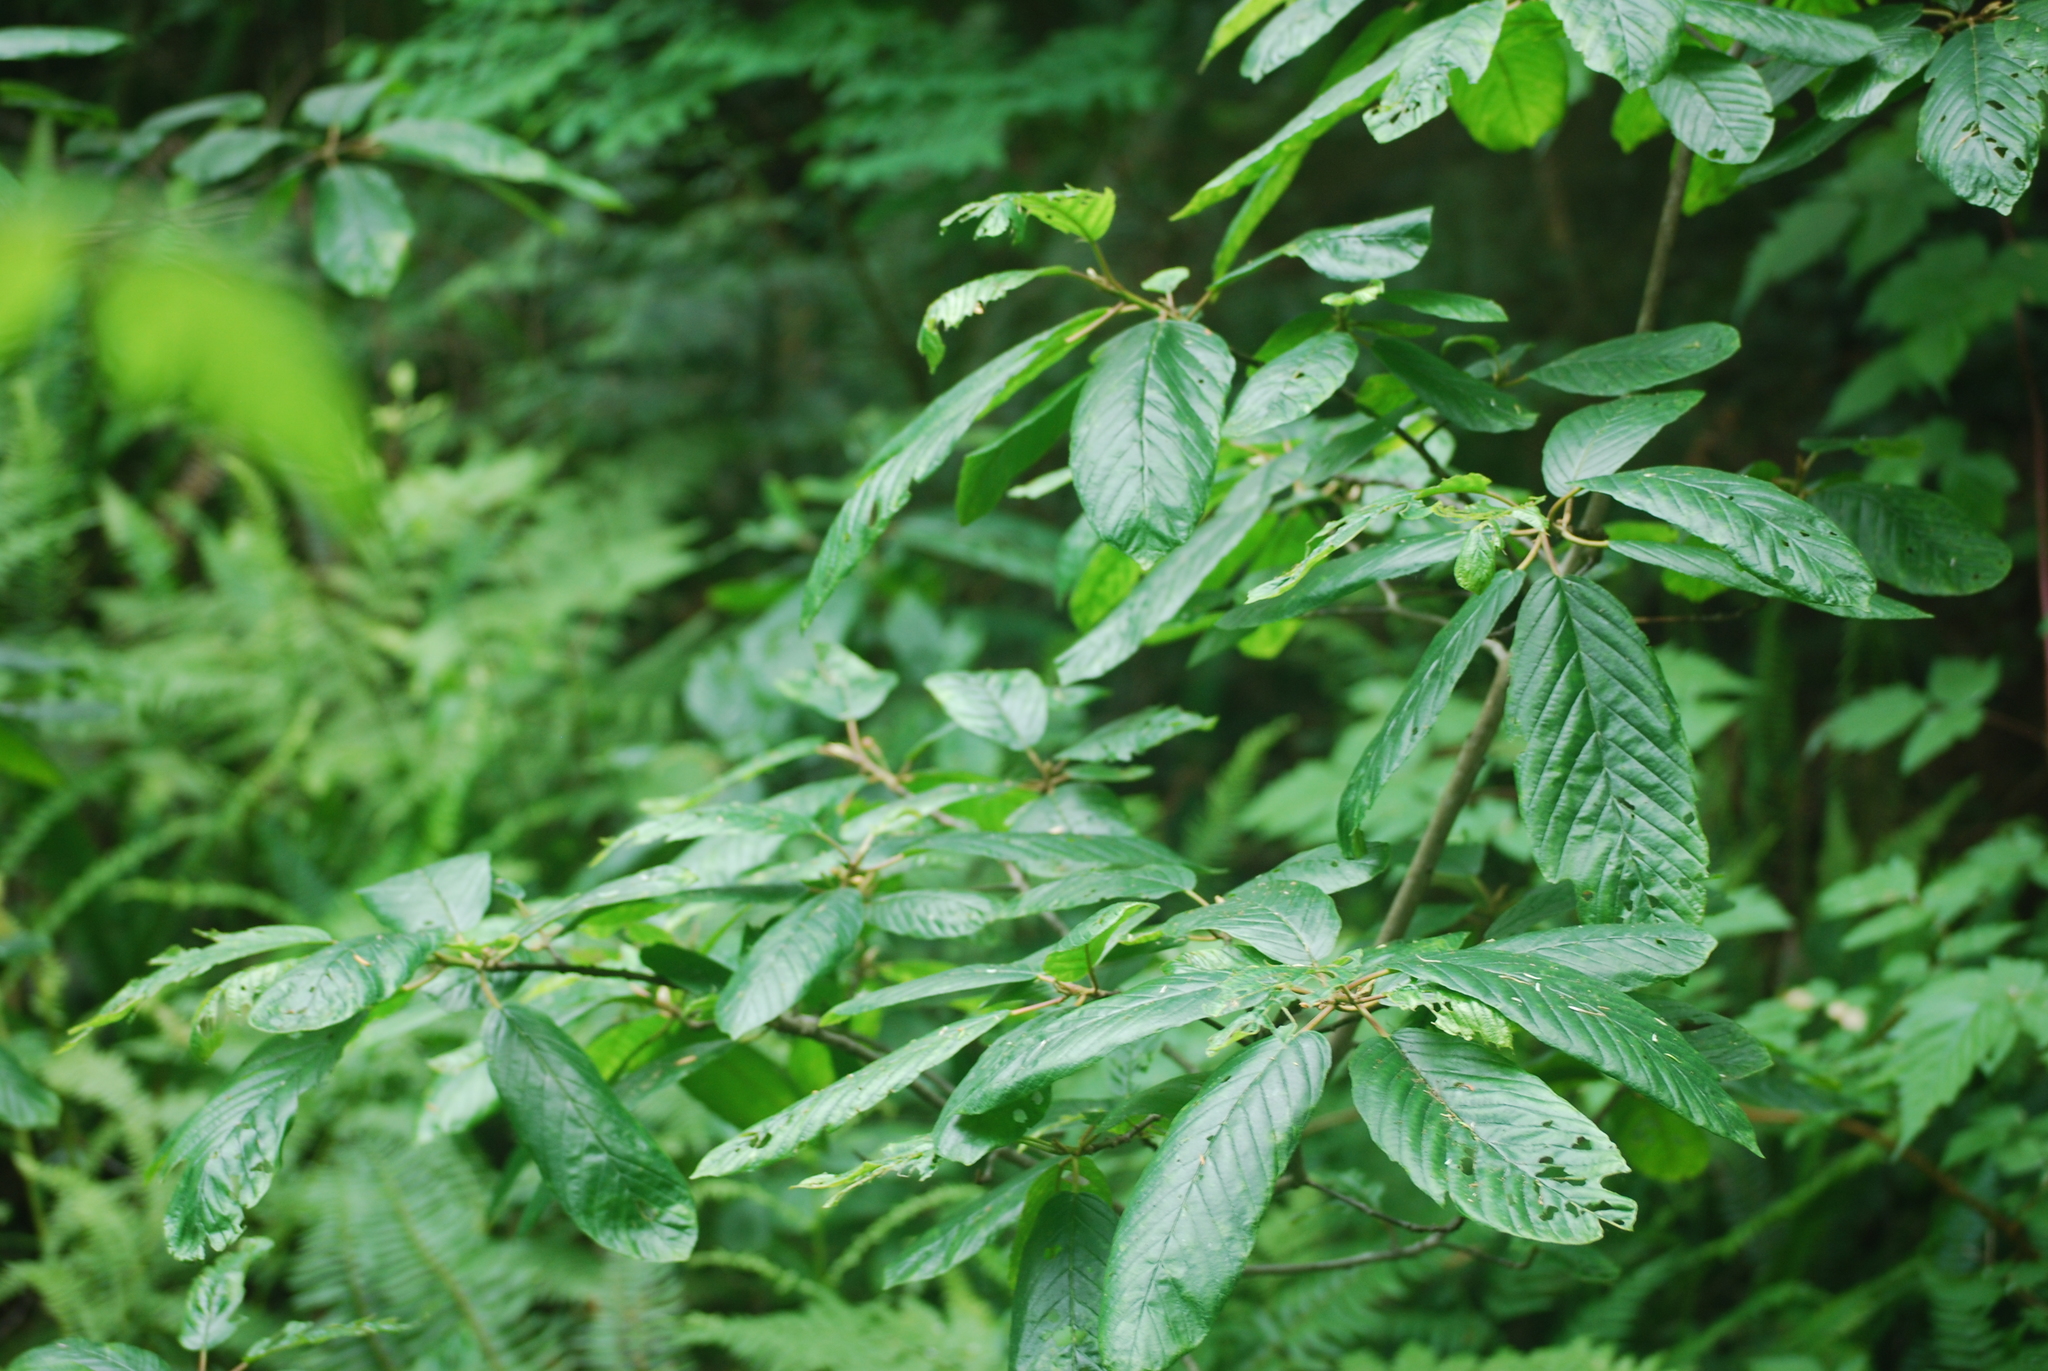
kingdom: Plantae
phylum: Tracheophyta
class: Magnoliopsida
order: Rosales
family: Rhamnaceae
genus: Frangula
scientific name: Frangula purshiana
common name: Cascara buckthorn
